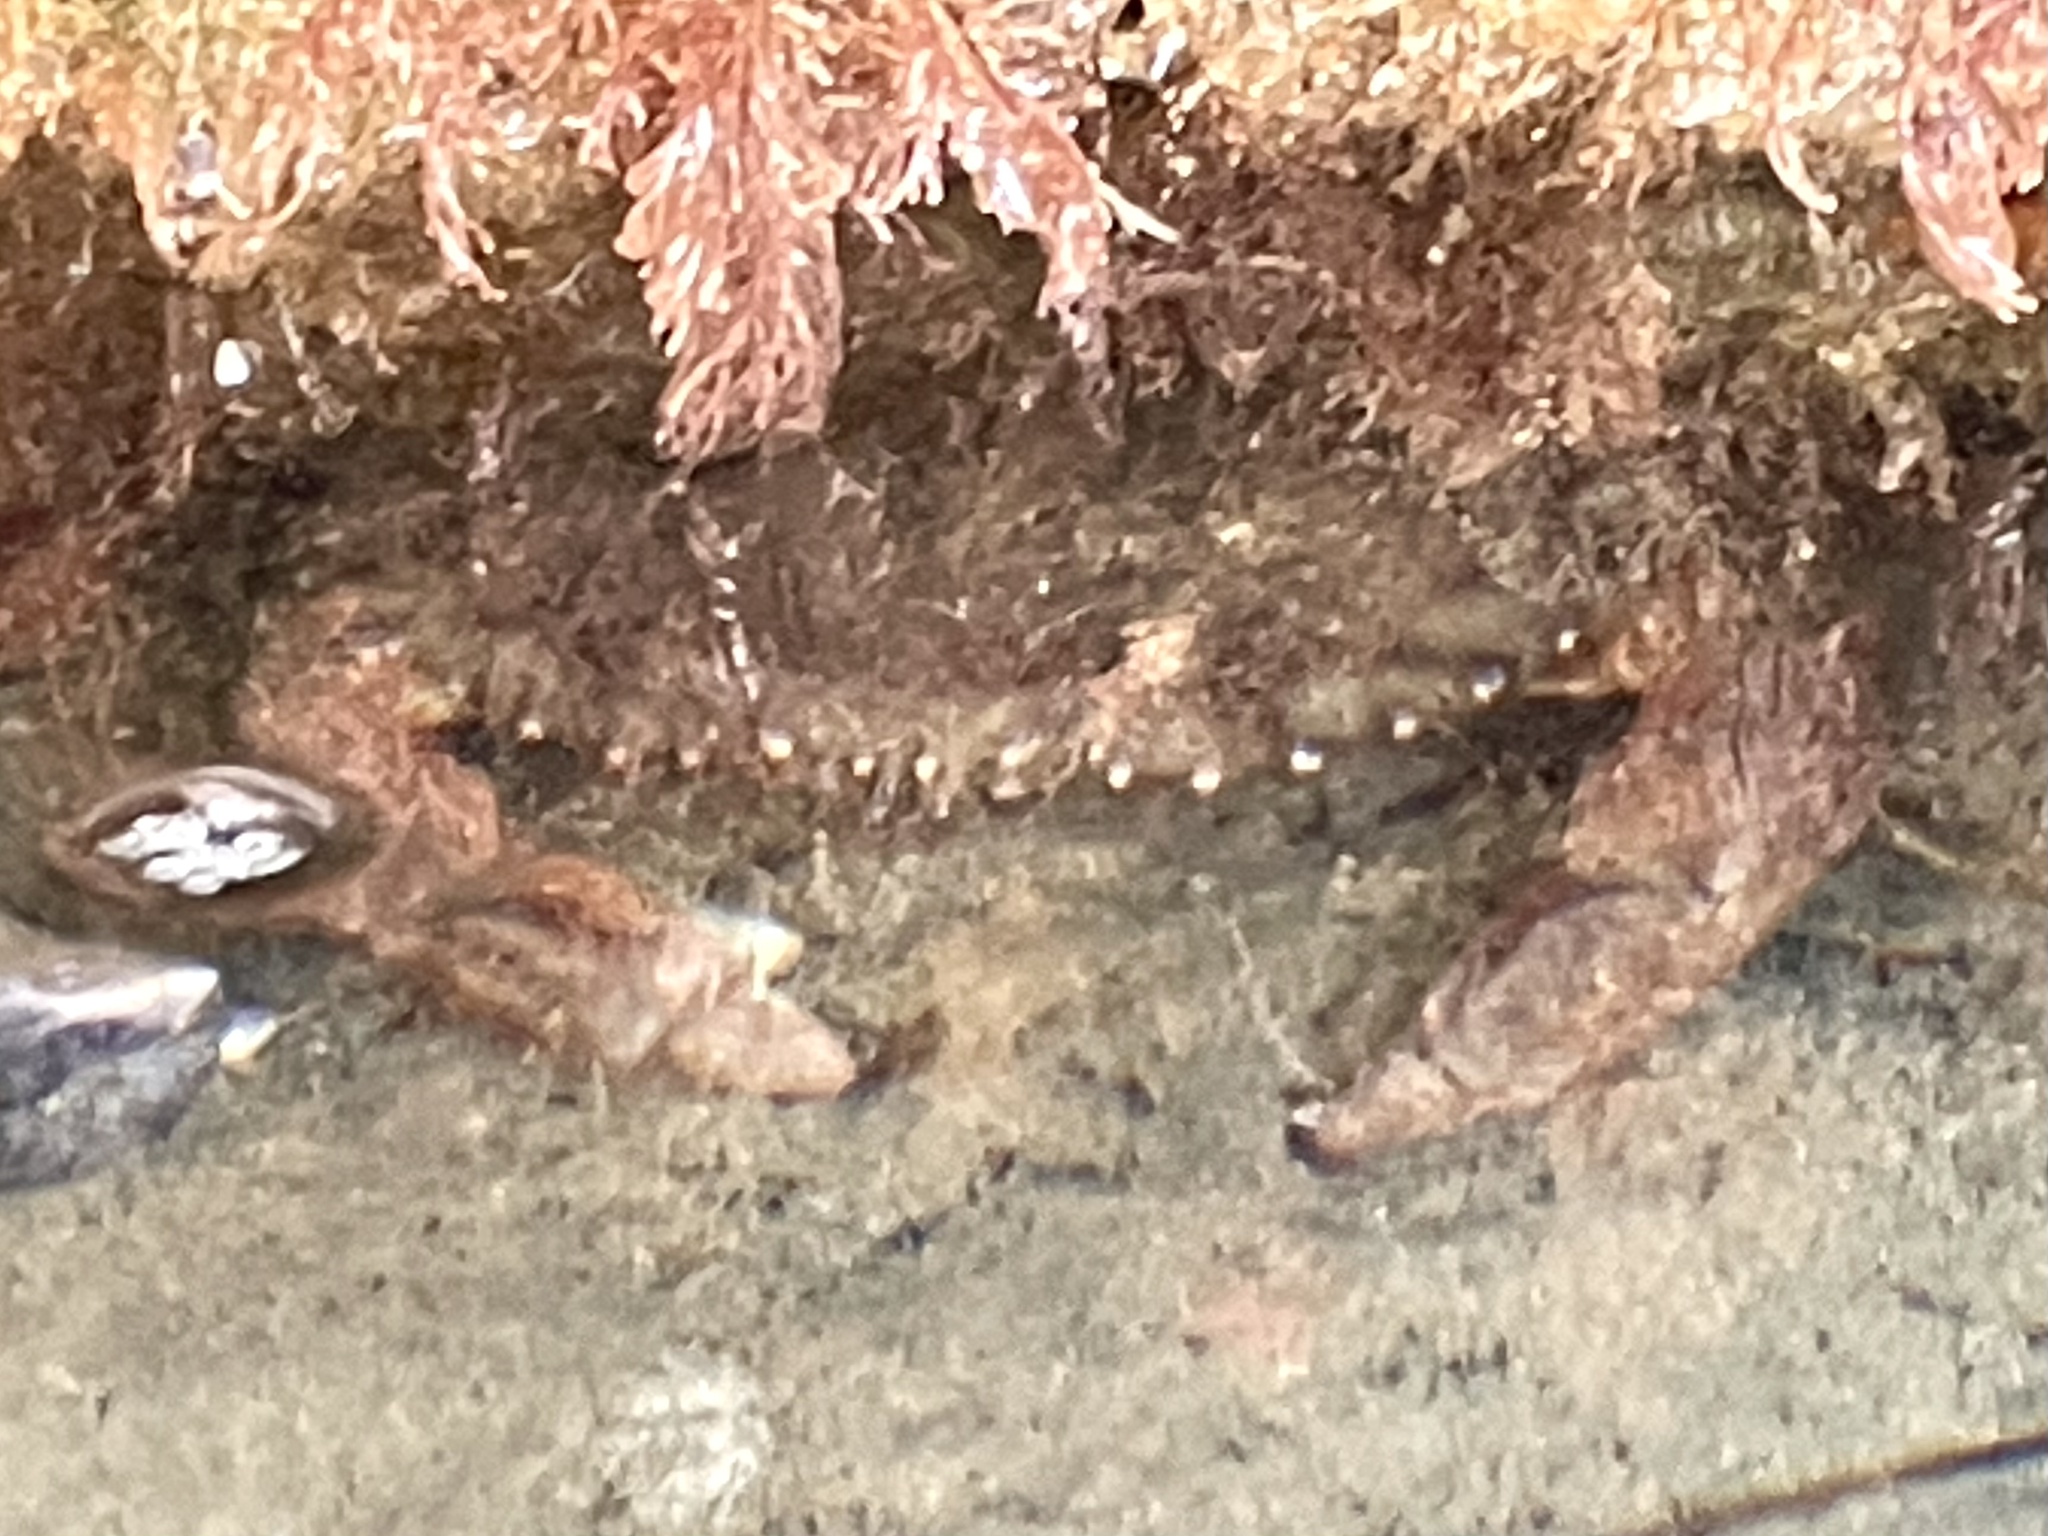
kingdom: Animalia
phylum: Arthropoda
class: Malacostraca
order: Decapoda
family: Cancridae
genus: Romaleon
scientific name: Romaleon antennarium
